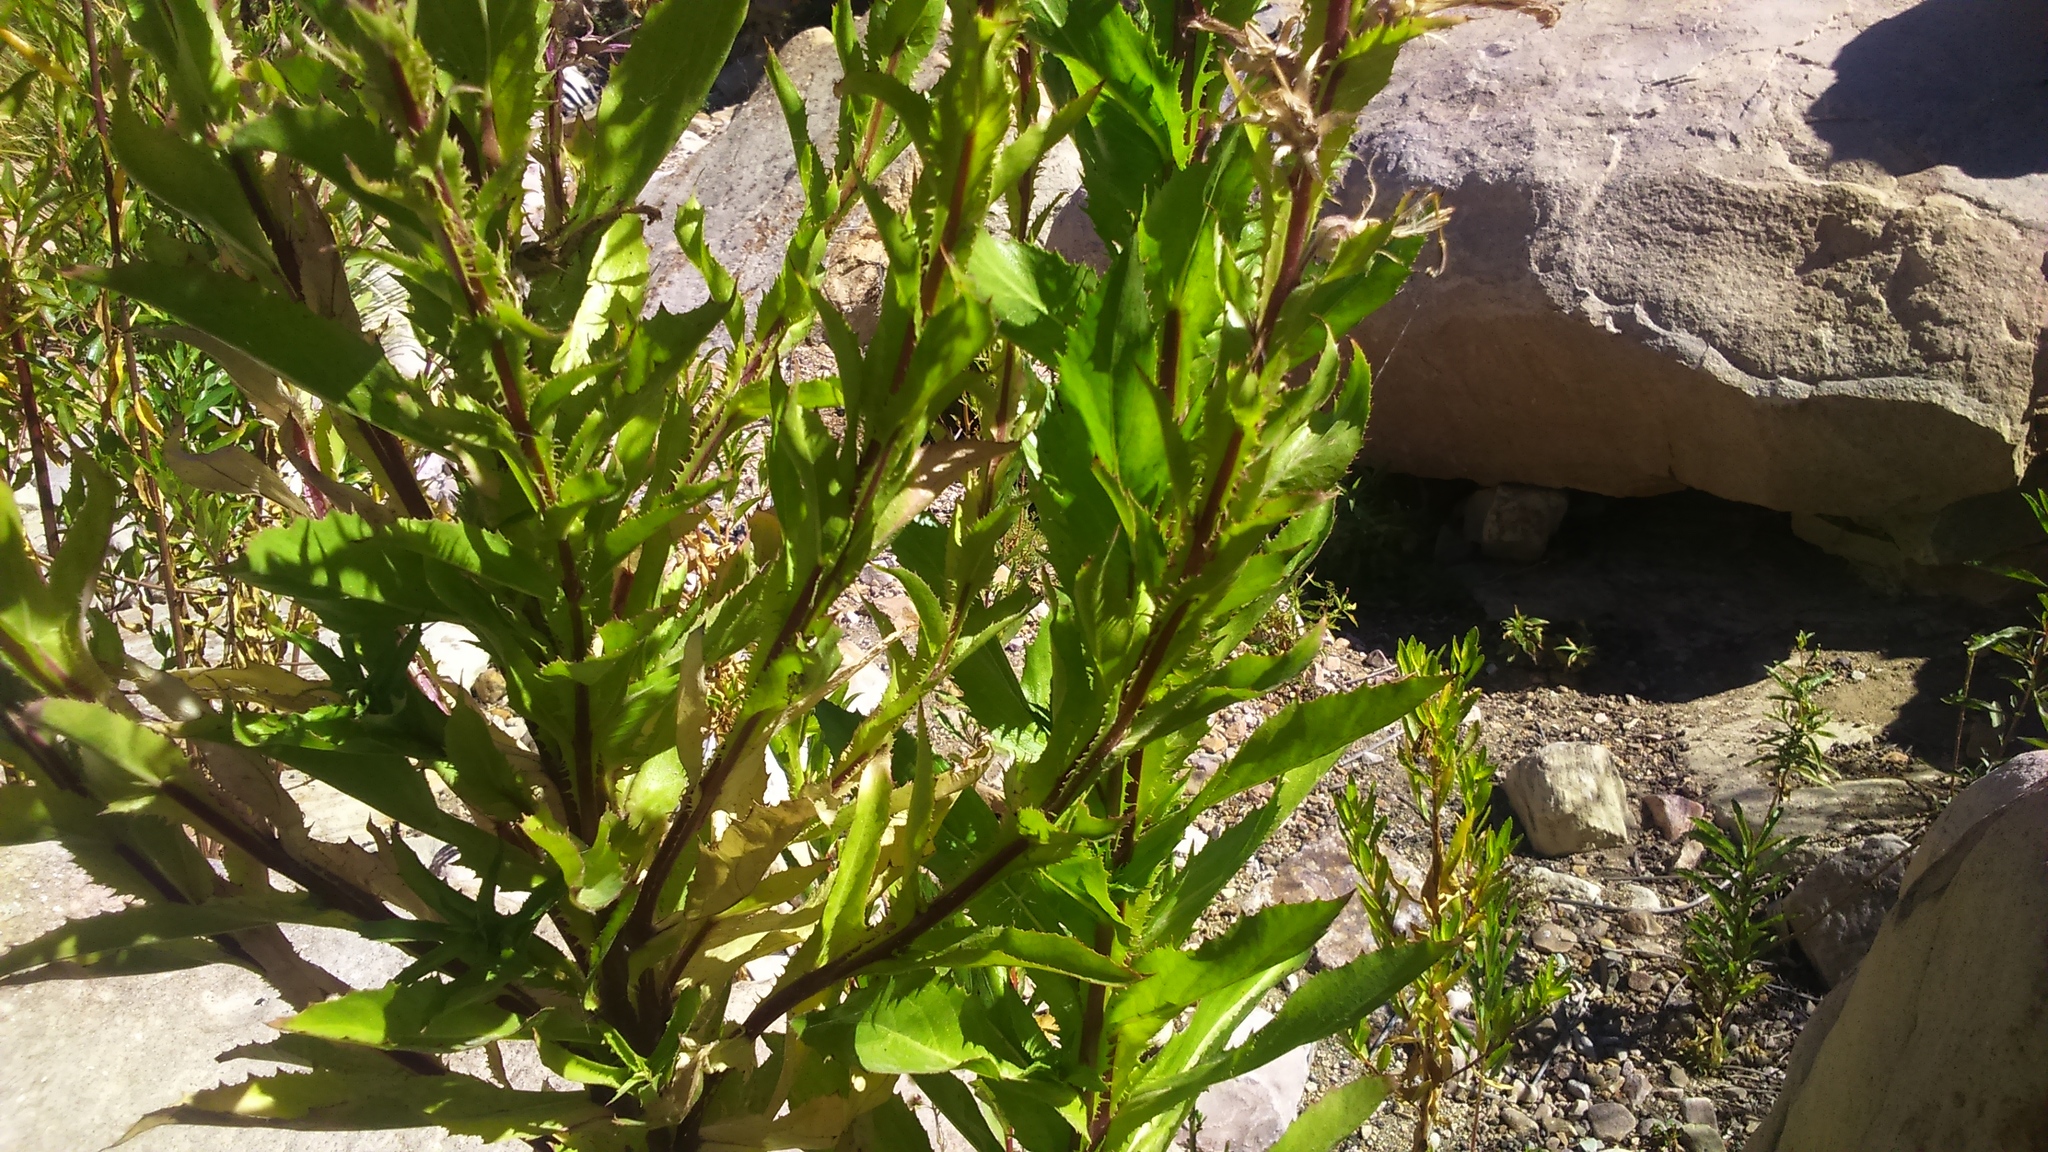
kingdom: Plantae
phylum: Tracheophyta
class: Magnoliopsida
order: Asterales
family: Campanulaceae
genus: Lobelia
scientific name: Lobelia decurrens
